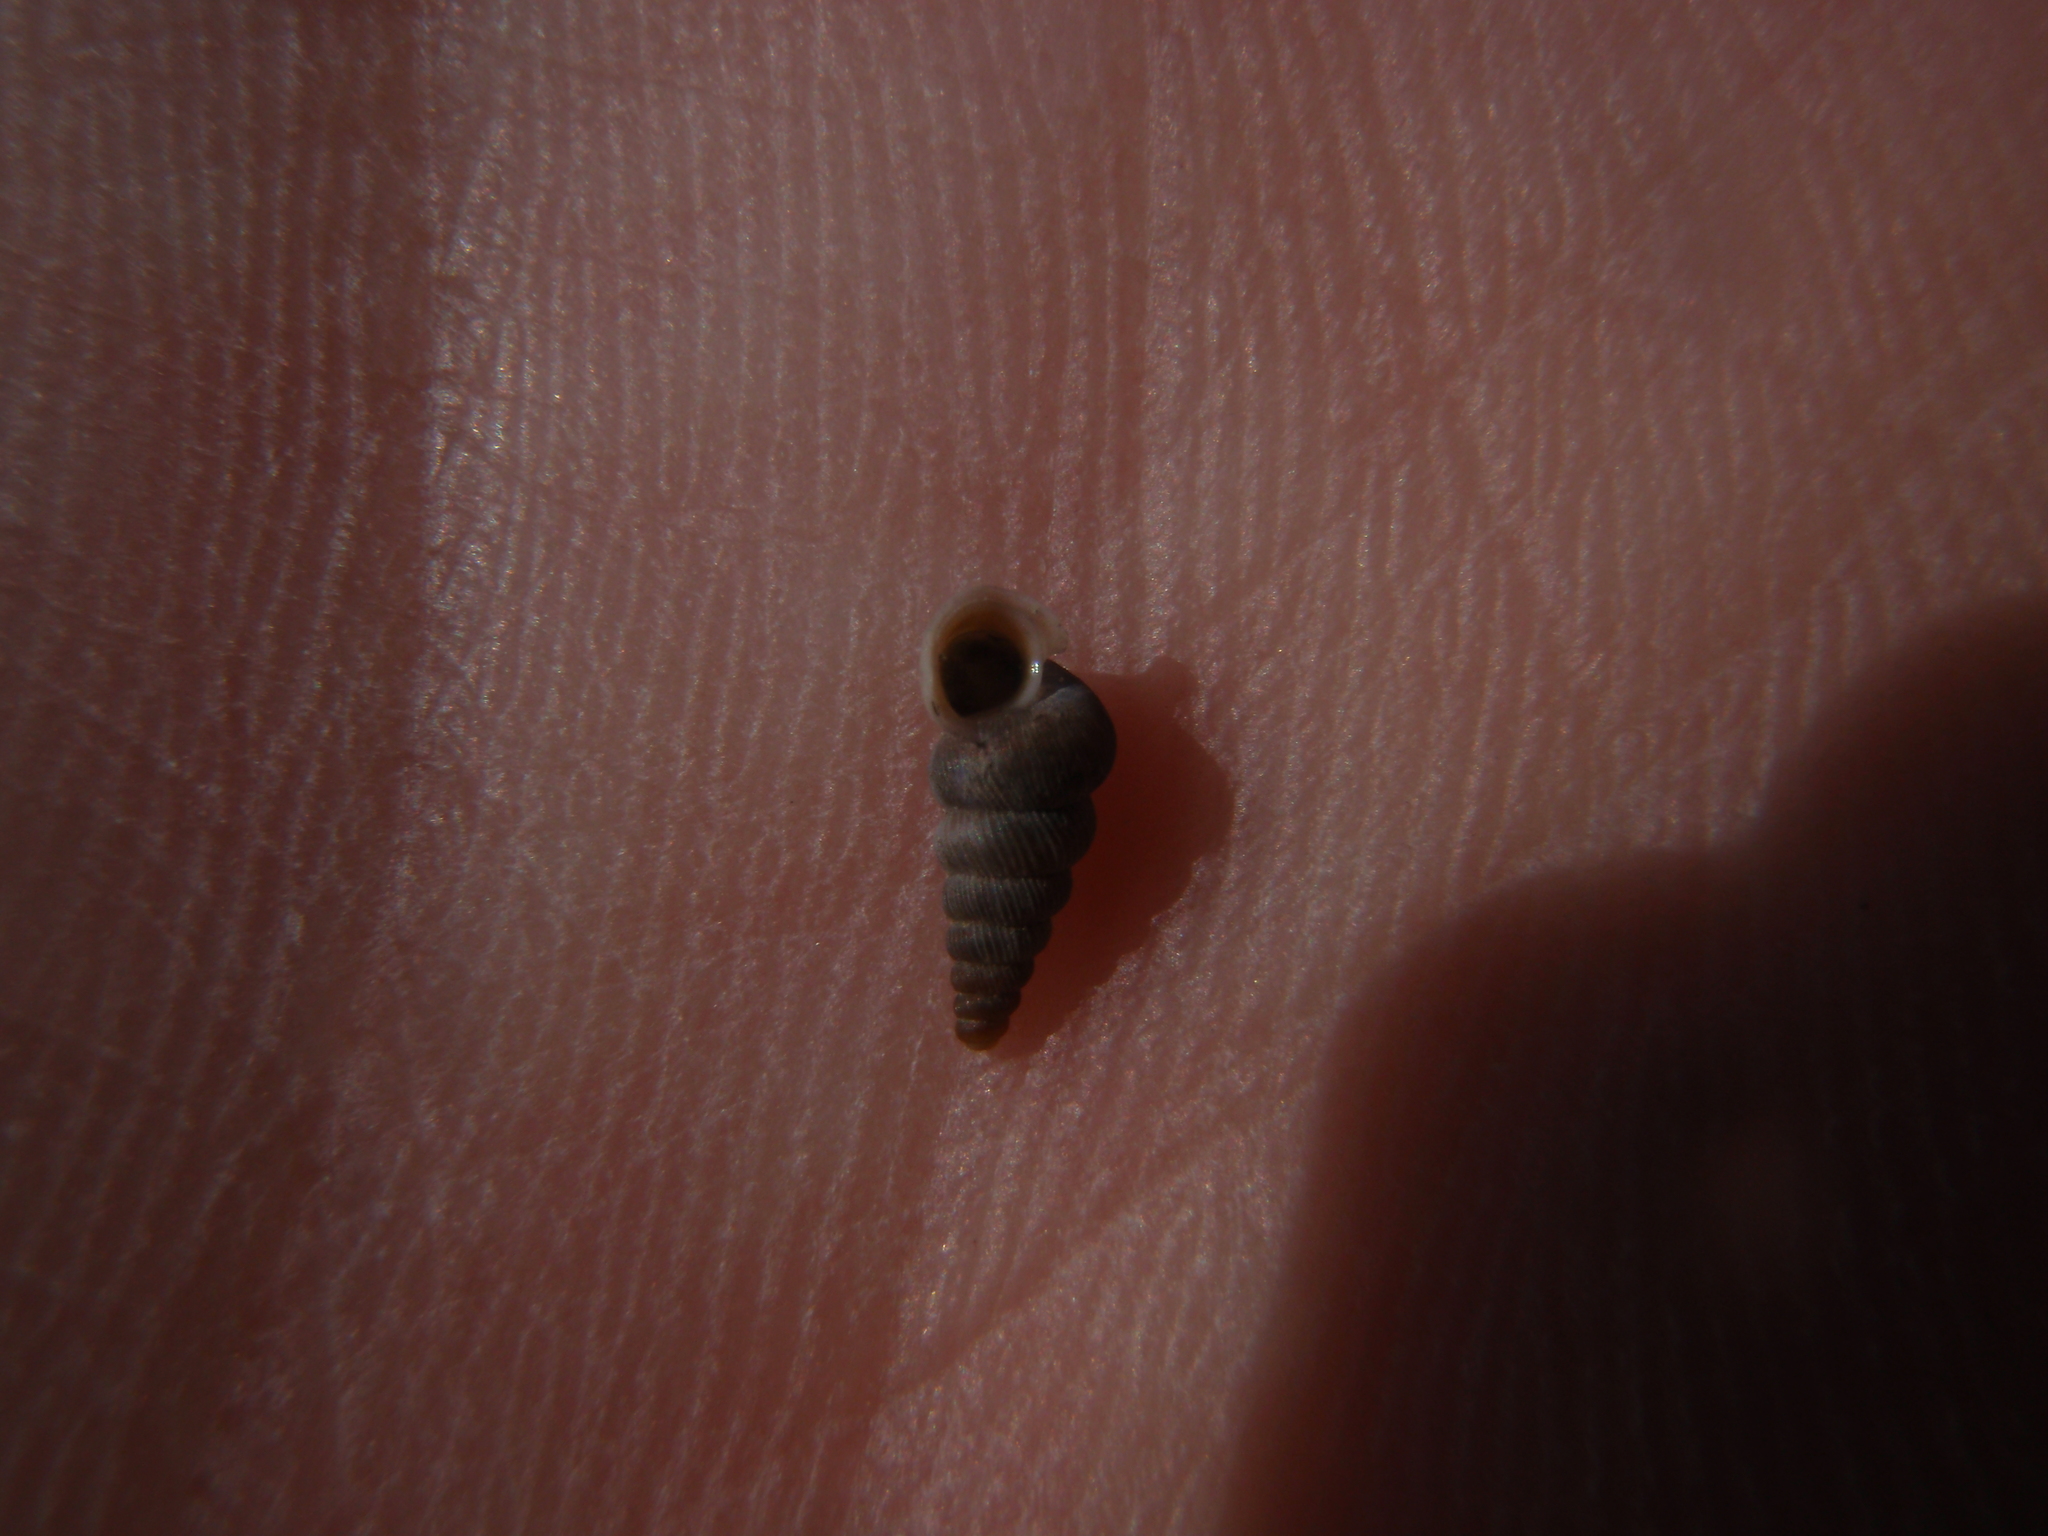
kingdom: Animalia
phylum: Mollusca
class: Gastropoda
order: Architaenioglossa
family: Cochlostomatidae
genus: Cochlostoma
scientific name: Cochlostoma patulum
